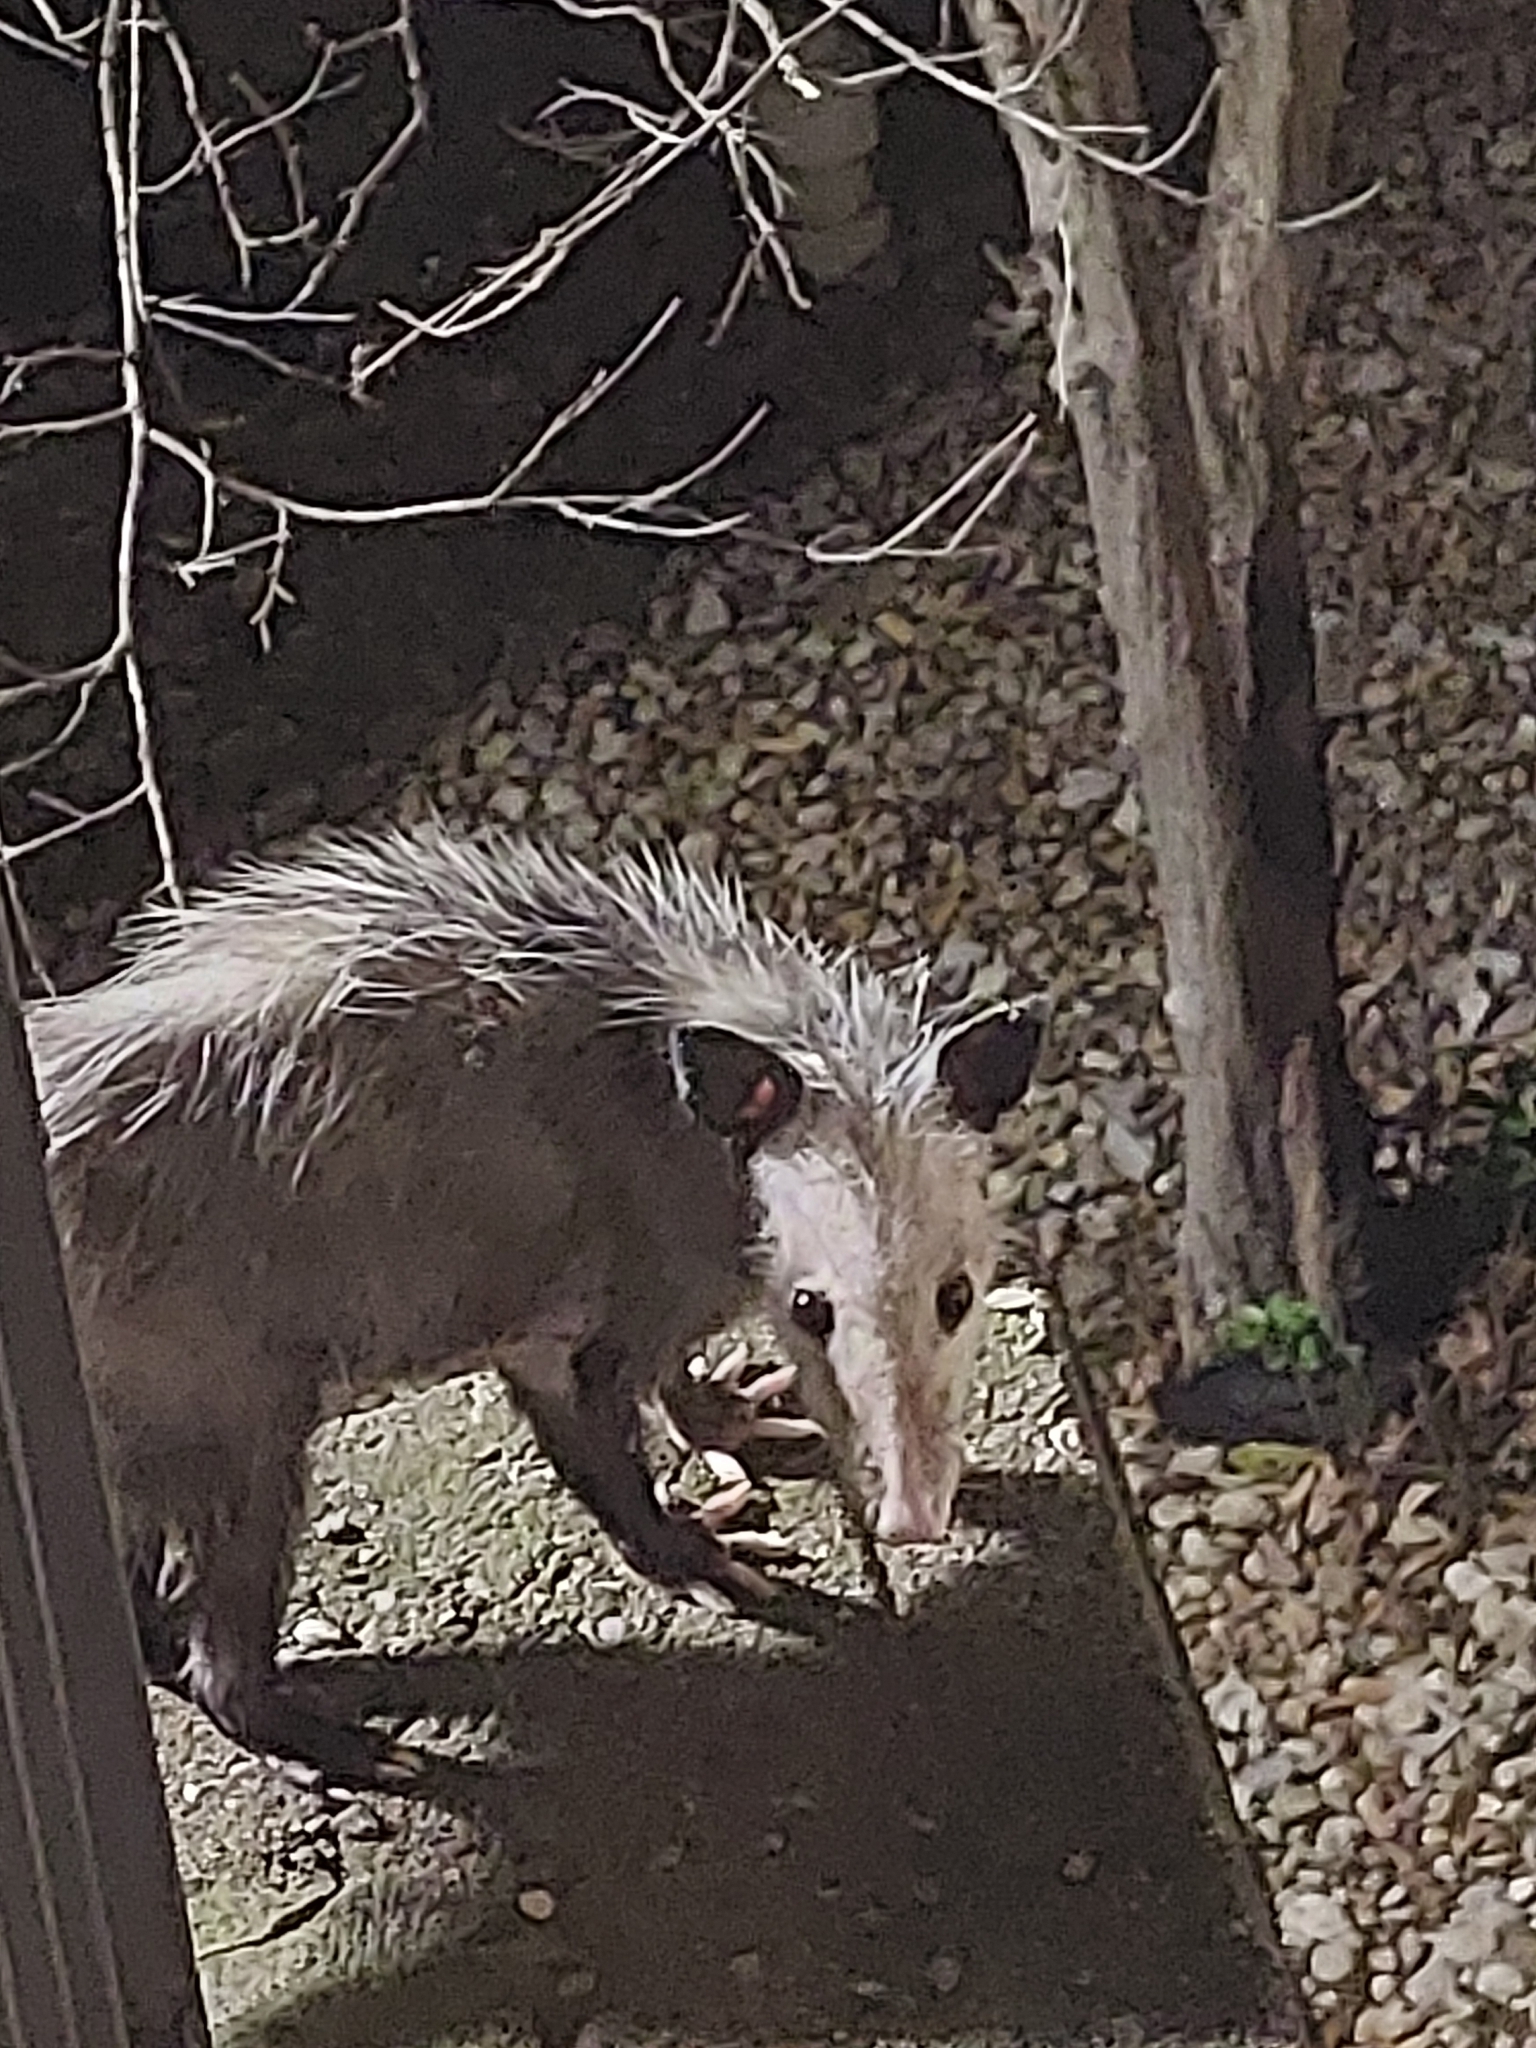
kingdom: Animalia
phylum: Chordata
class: Mammalia
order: Didelphimorphia
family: Didelphidae
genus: Didelphis
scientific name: Didelphis virginiana
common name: Virginia opossum
